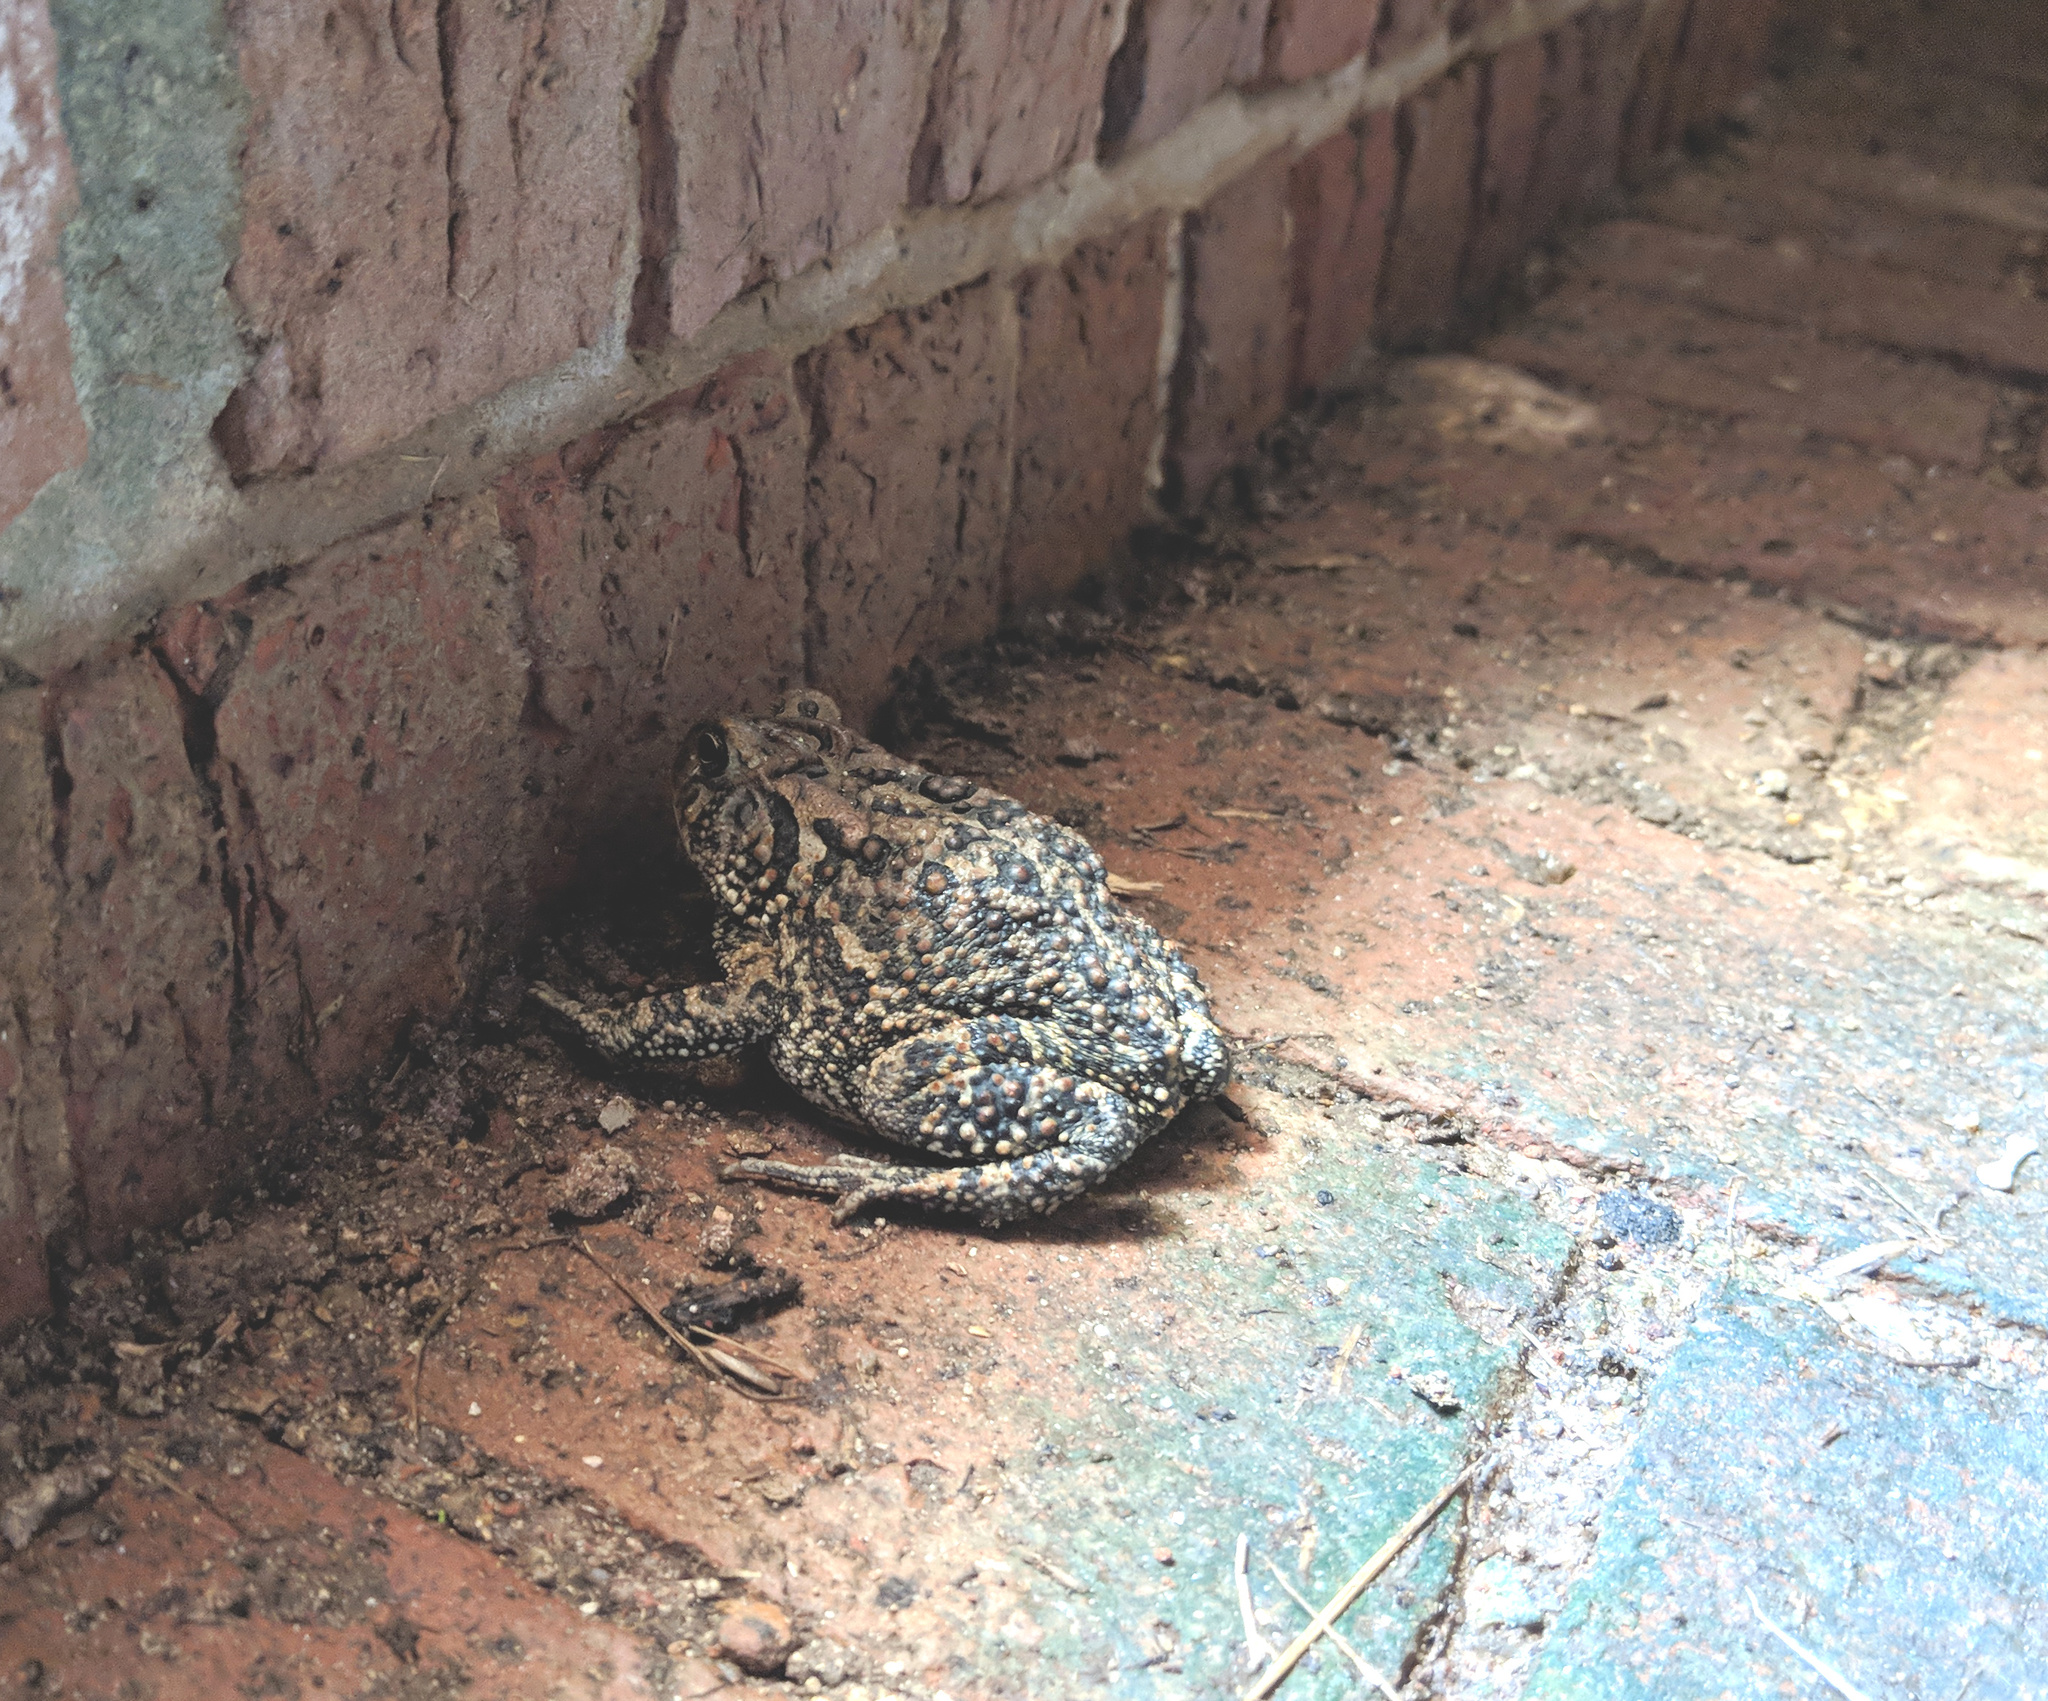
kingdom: Animalia
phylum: Chordata
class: Amphibia
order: Anura
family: Bufonidae
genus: Anaxyrus
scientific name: Anaxyrus terrestris
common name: Southern toad
